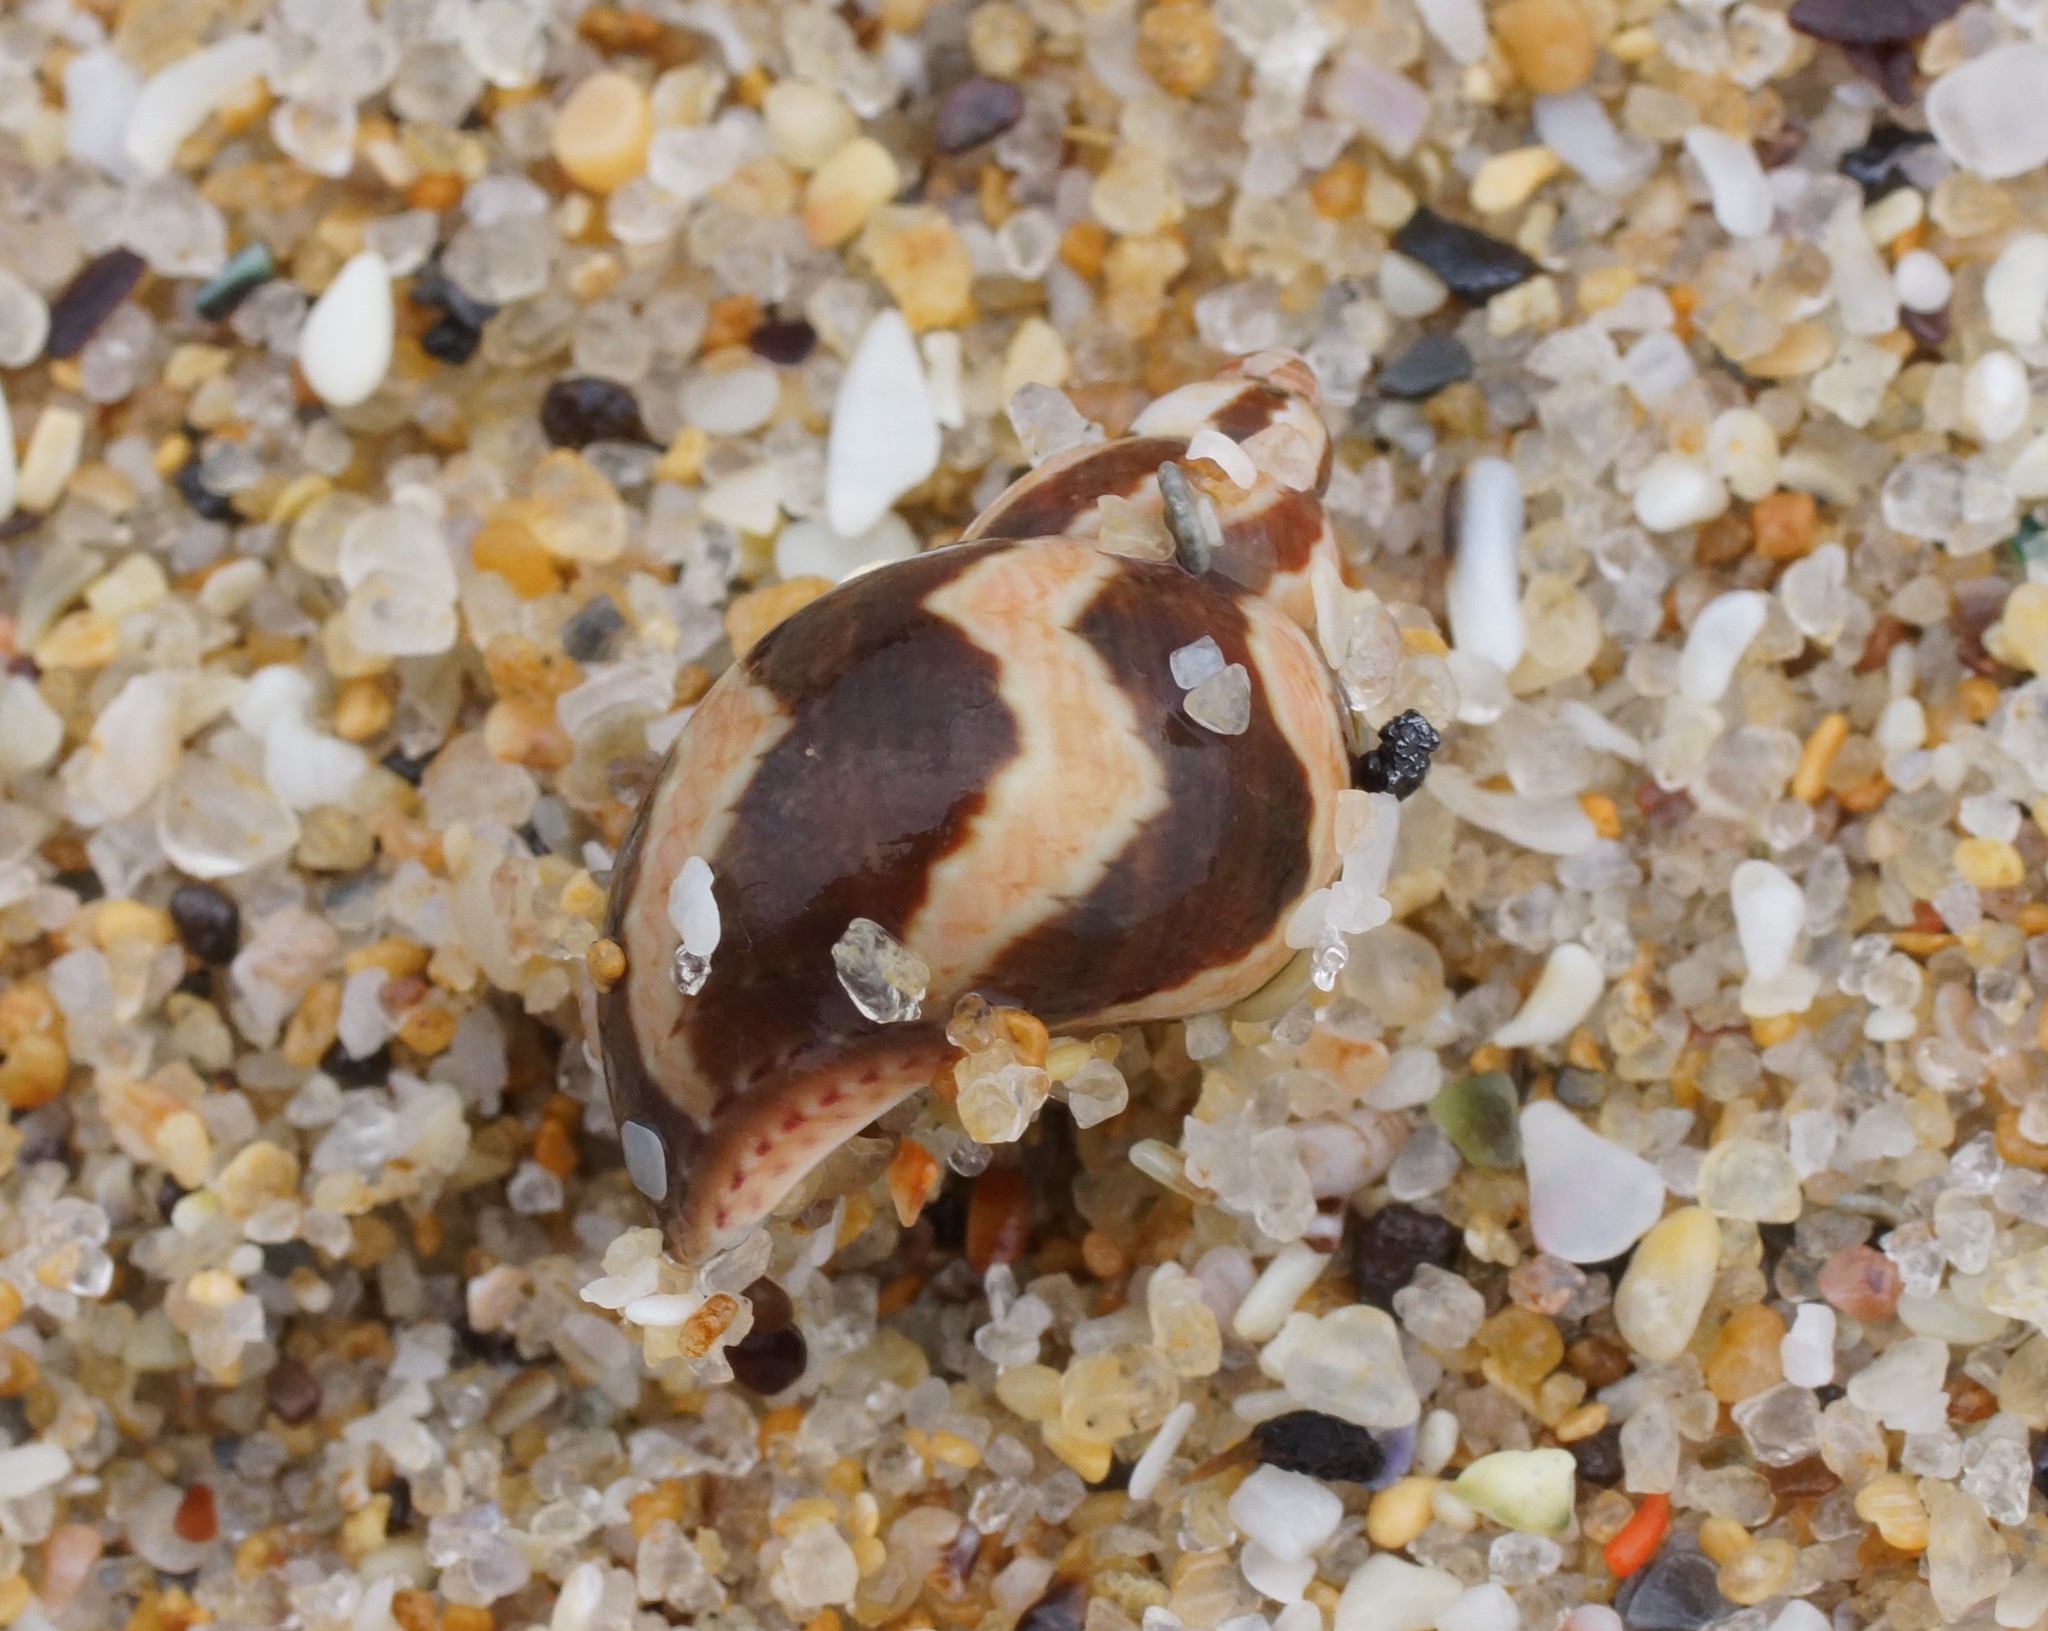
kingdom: Animalia
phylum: Mollusca
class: Gastropoda
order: Trochida
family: Phasianellidae
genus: Phasianella
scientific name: Phasianella ventricosa
